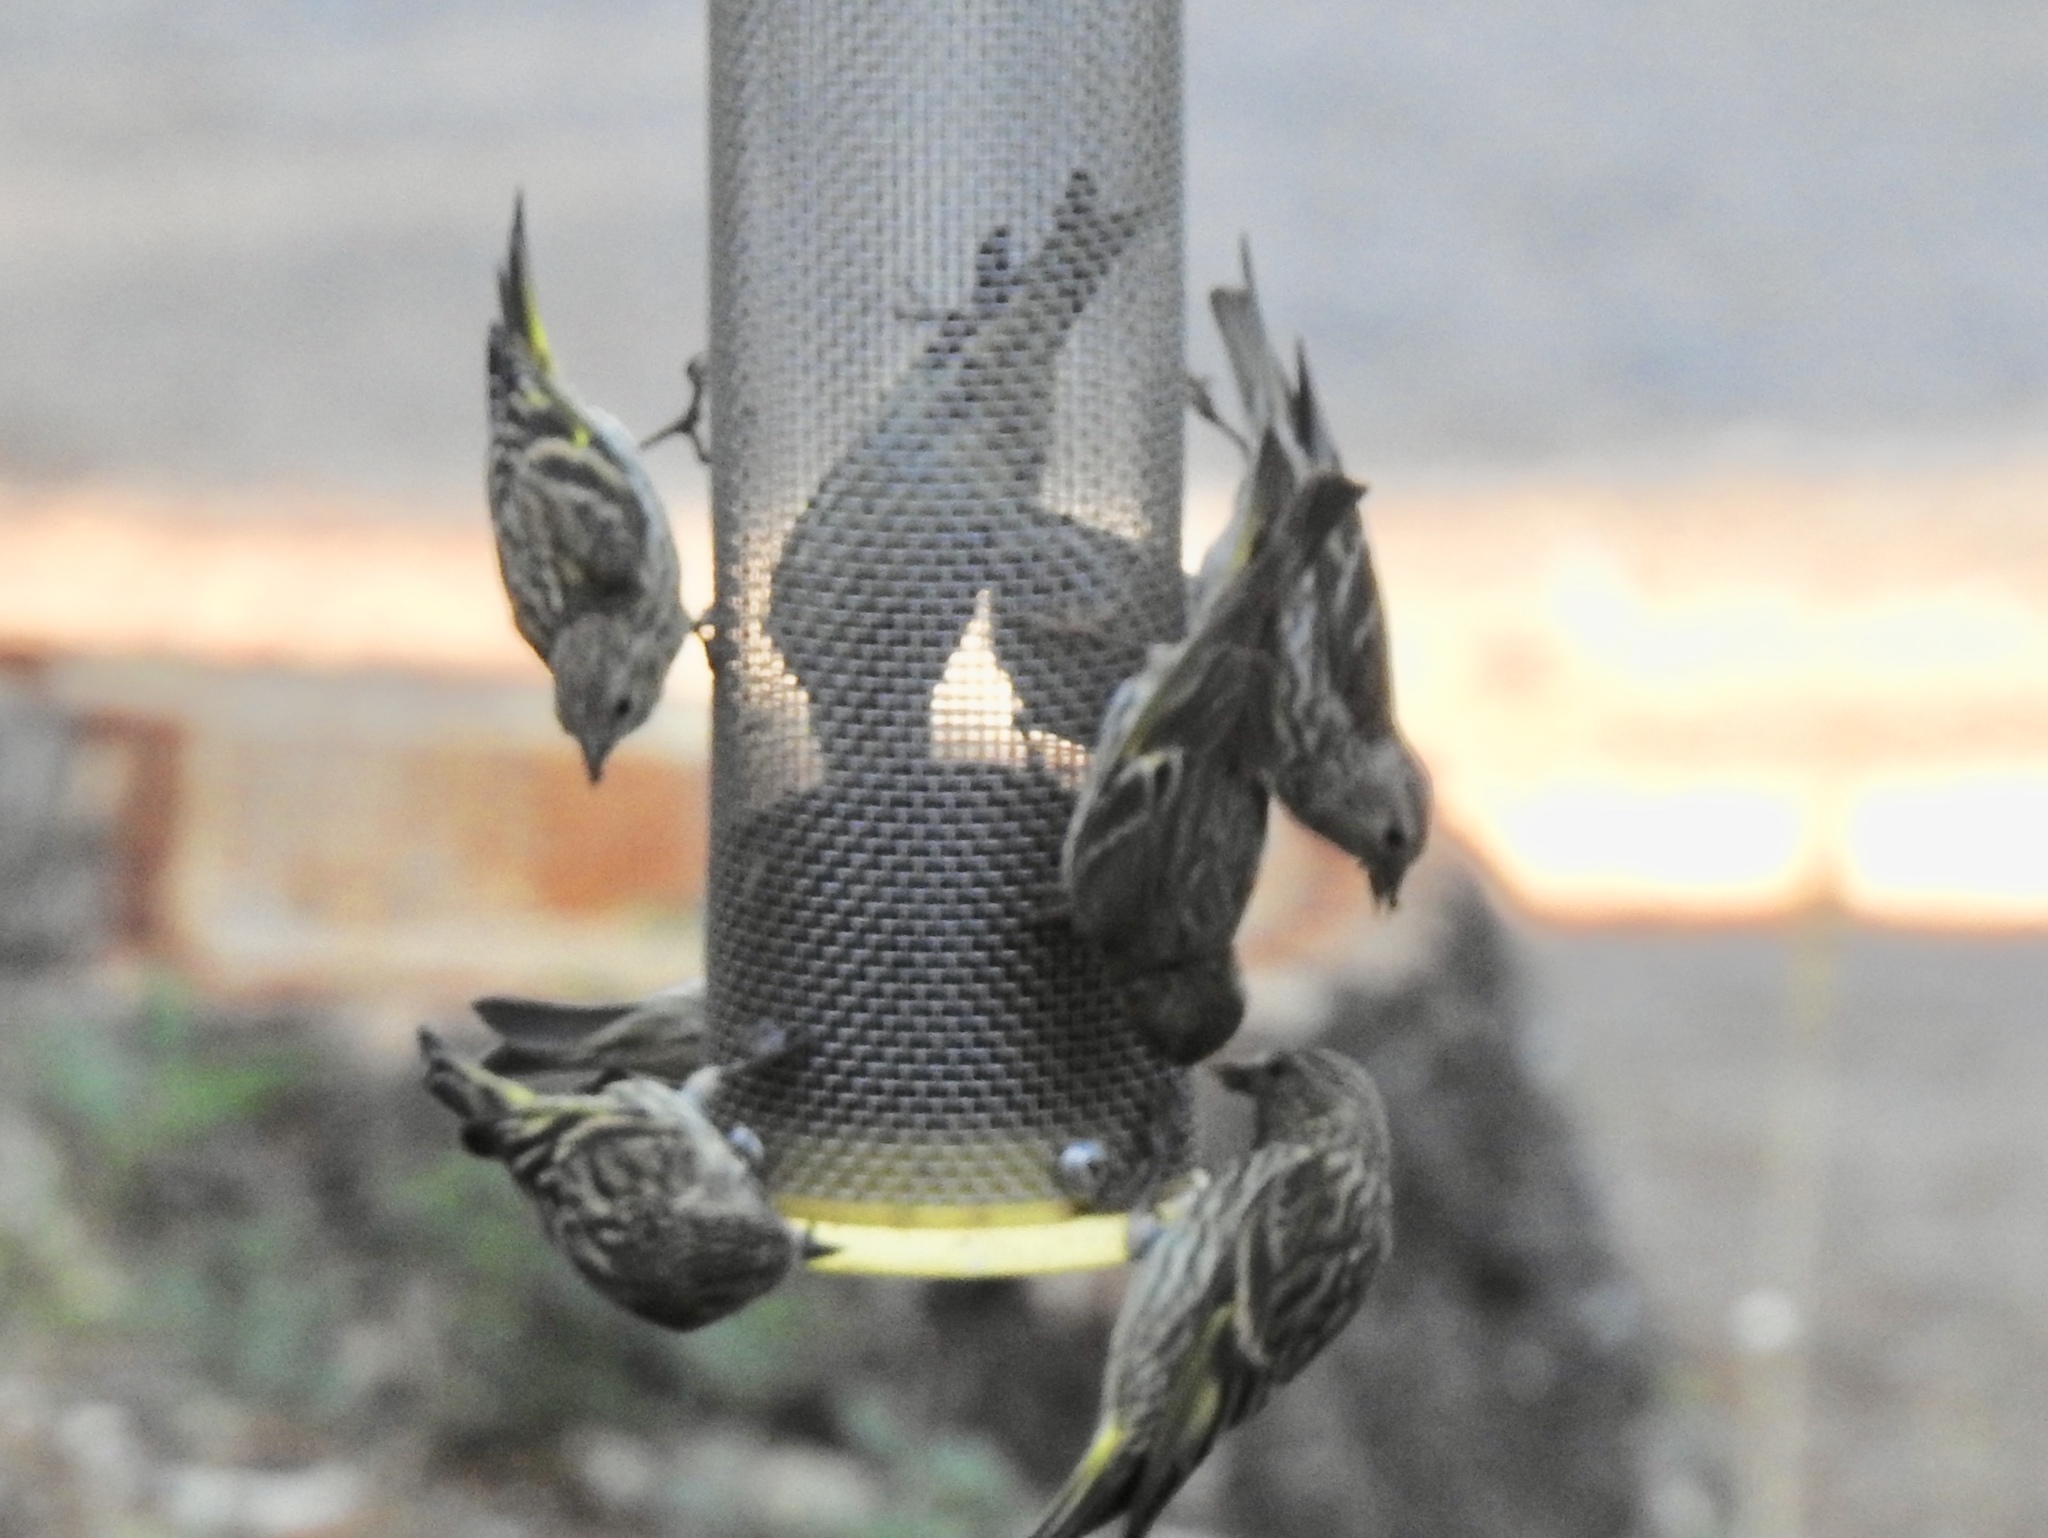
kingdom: Animalia
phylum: Chordata
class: Aves
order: Passeriformes
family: Fringillidae
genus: Spinus
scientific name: Spinus pinus
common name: Pine siskin
